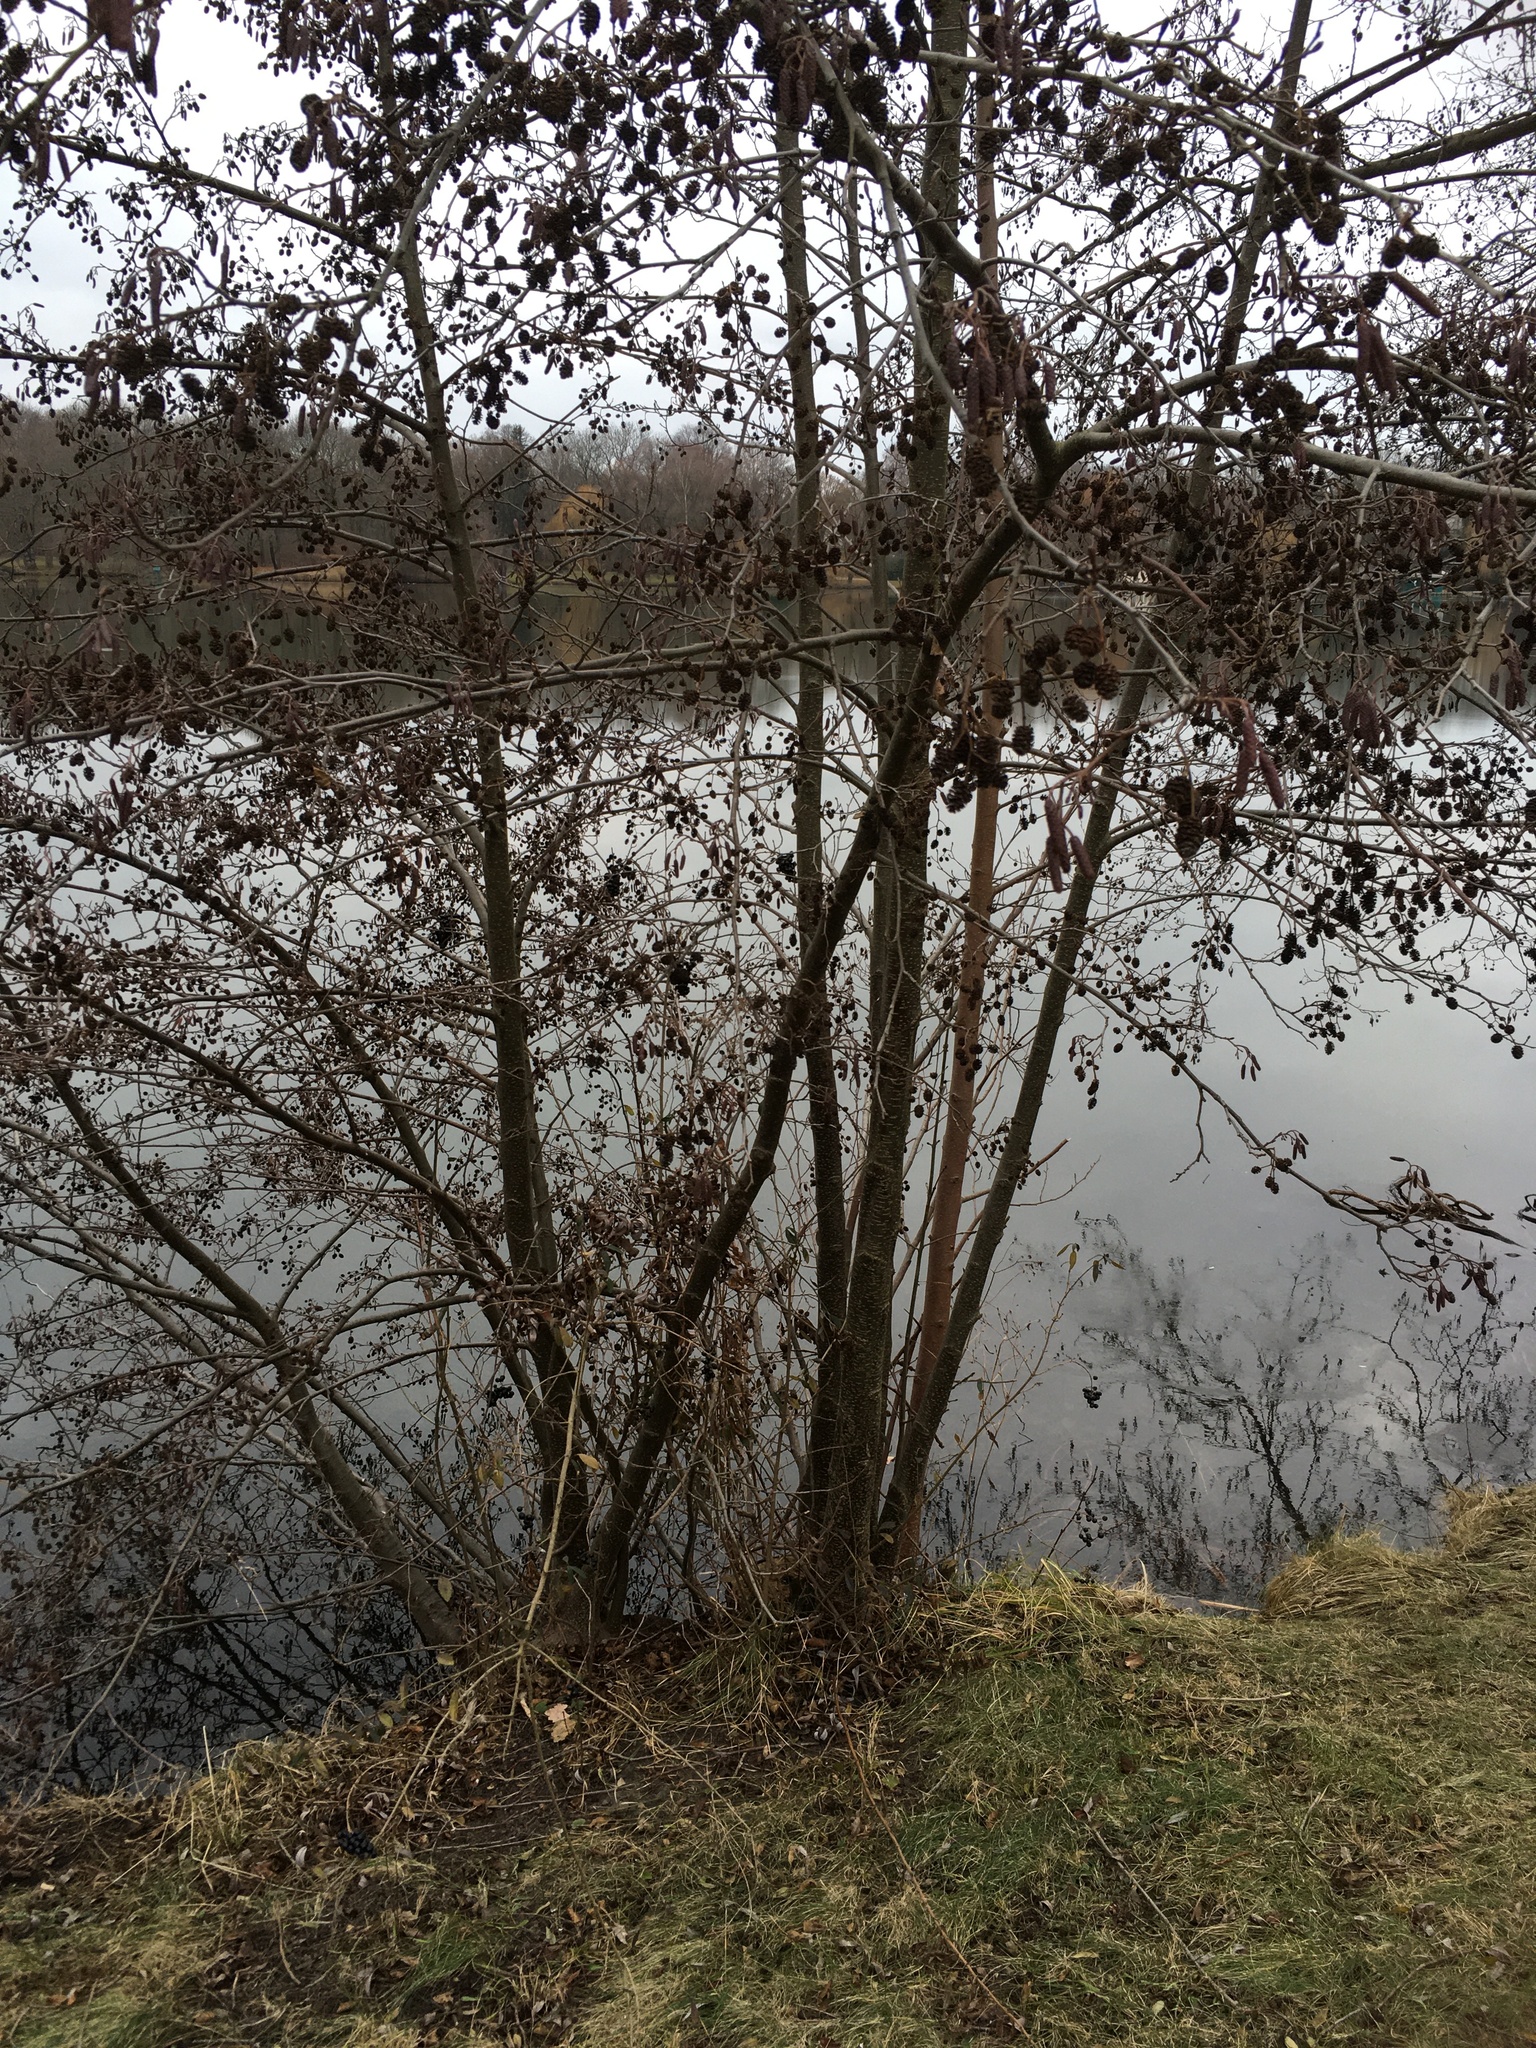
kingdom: Plantae
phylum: Tracheophyta
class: Magnoliopsida
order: Fagales
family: Betulaceae
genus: Alnus
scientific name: Alnus glutinosa
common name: Black alder
